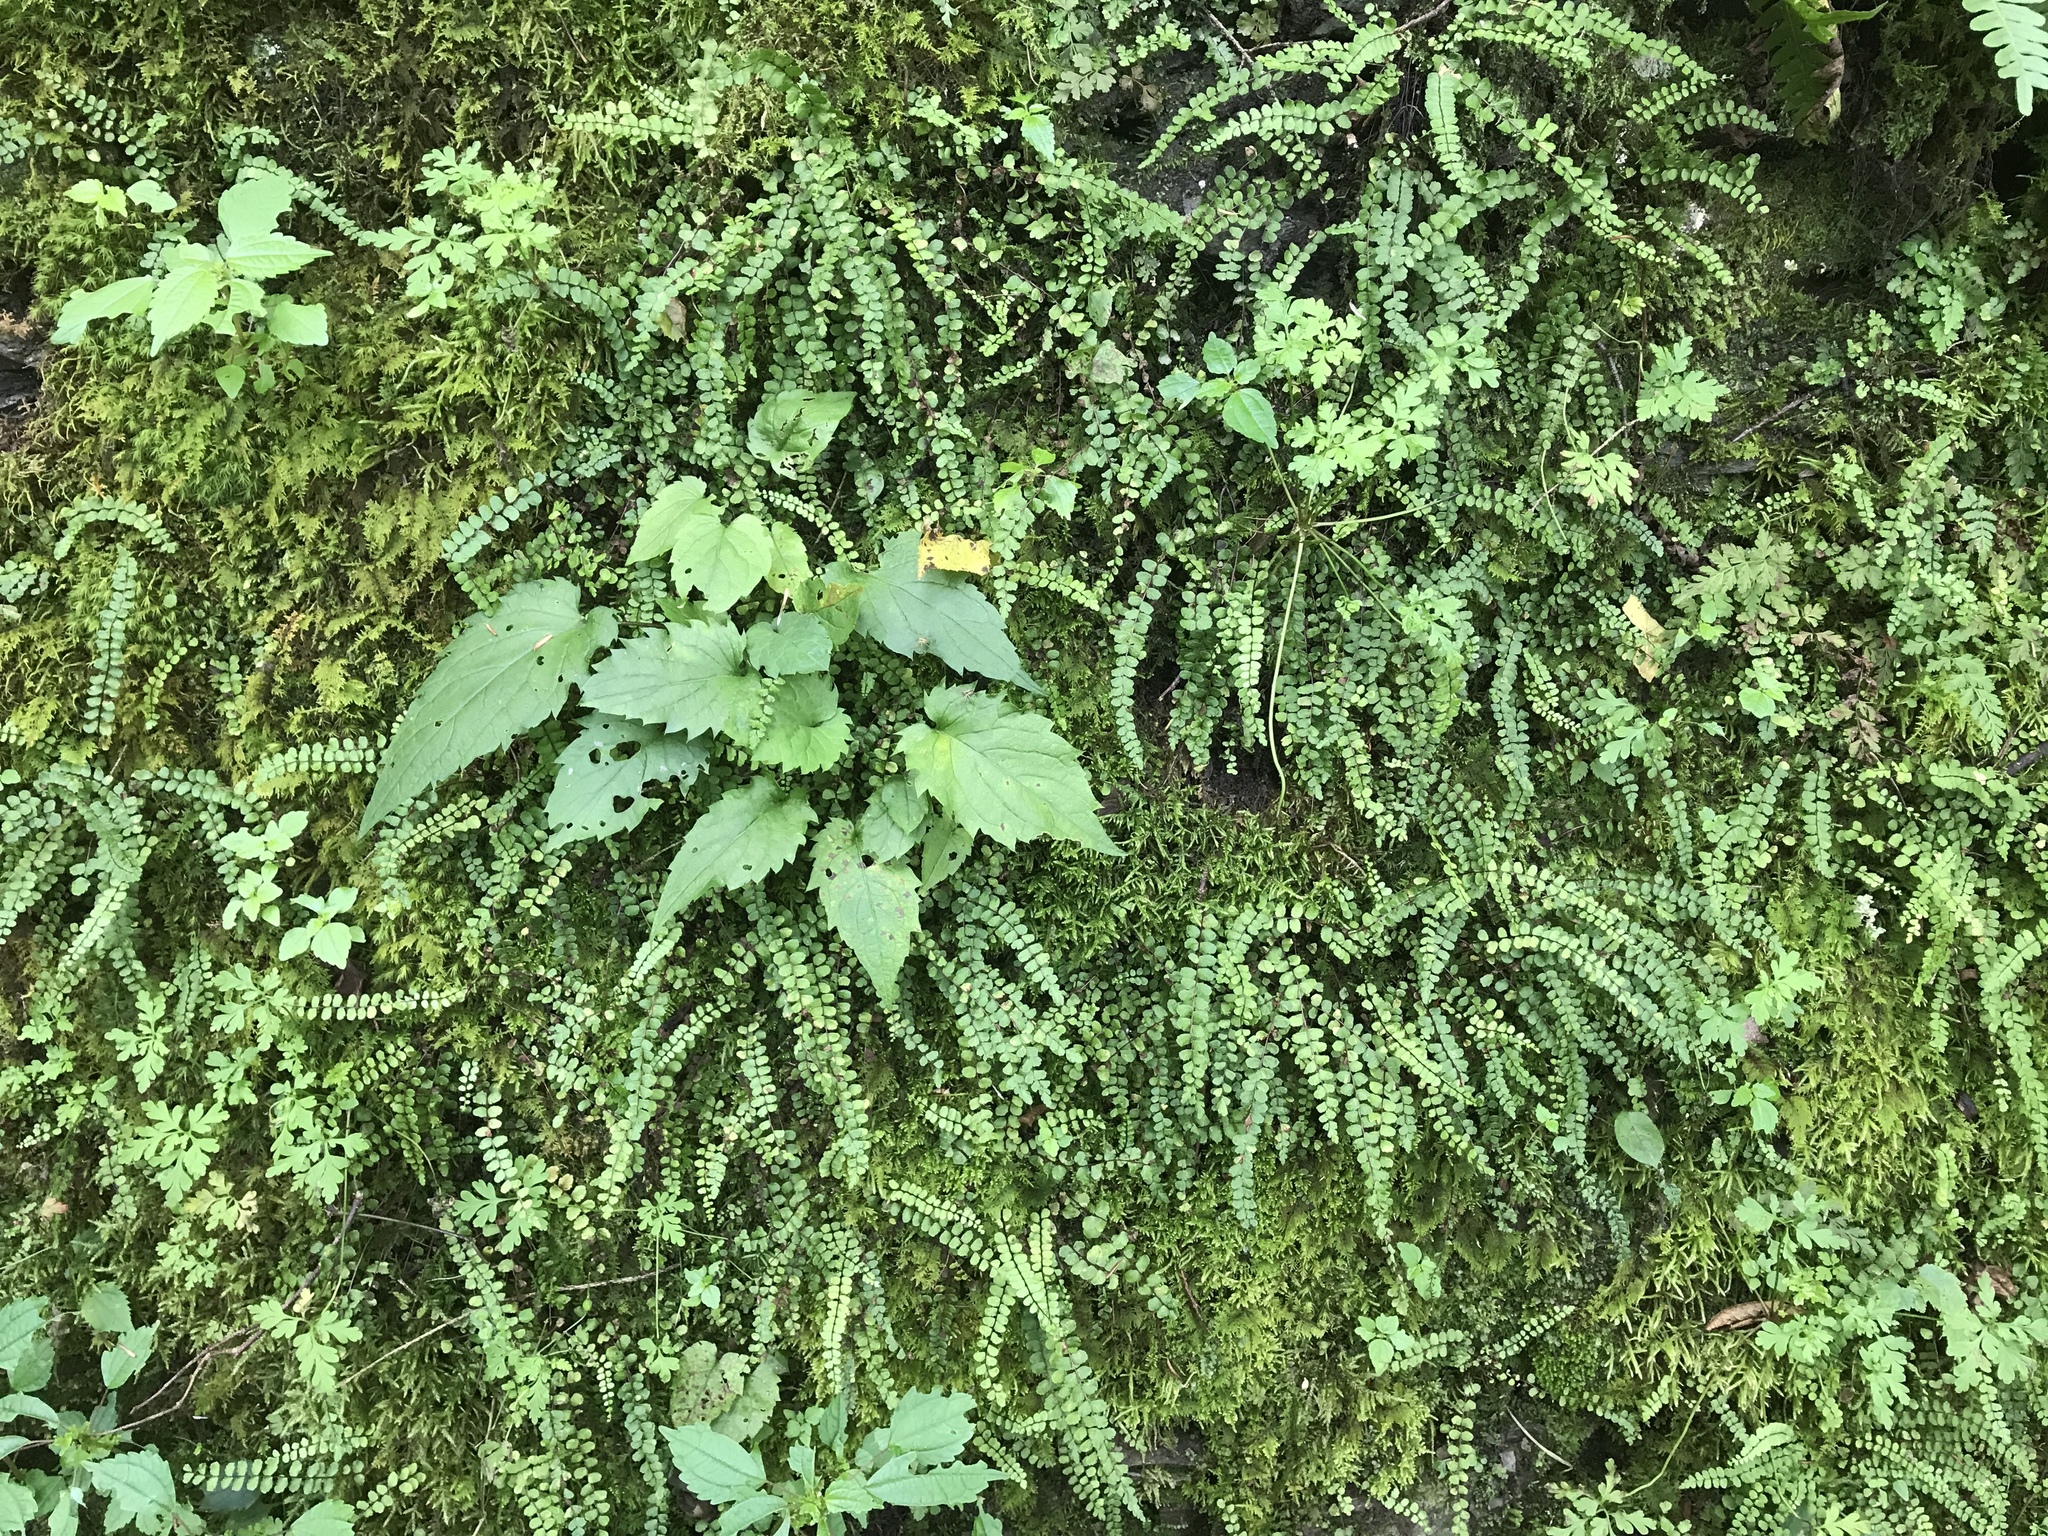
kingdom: Plantae
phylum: Tracheophyta
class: Polypodiopsida
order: Polypodiales
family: Aspleniaceae
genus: Asplenium
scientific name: Asplenium trichomanes
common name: Maidenhair spleenwort
